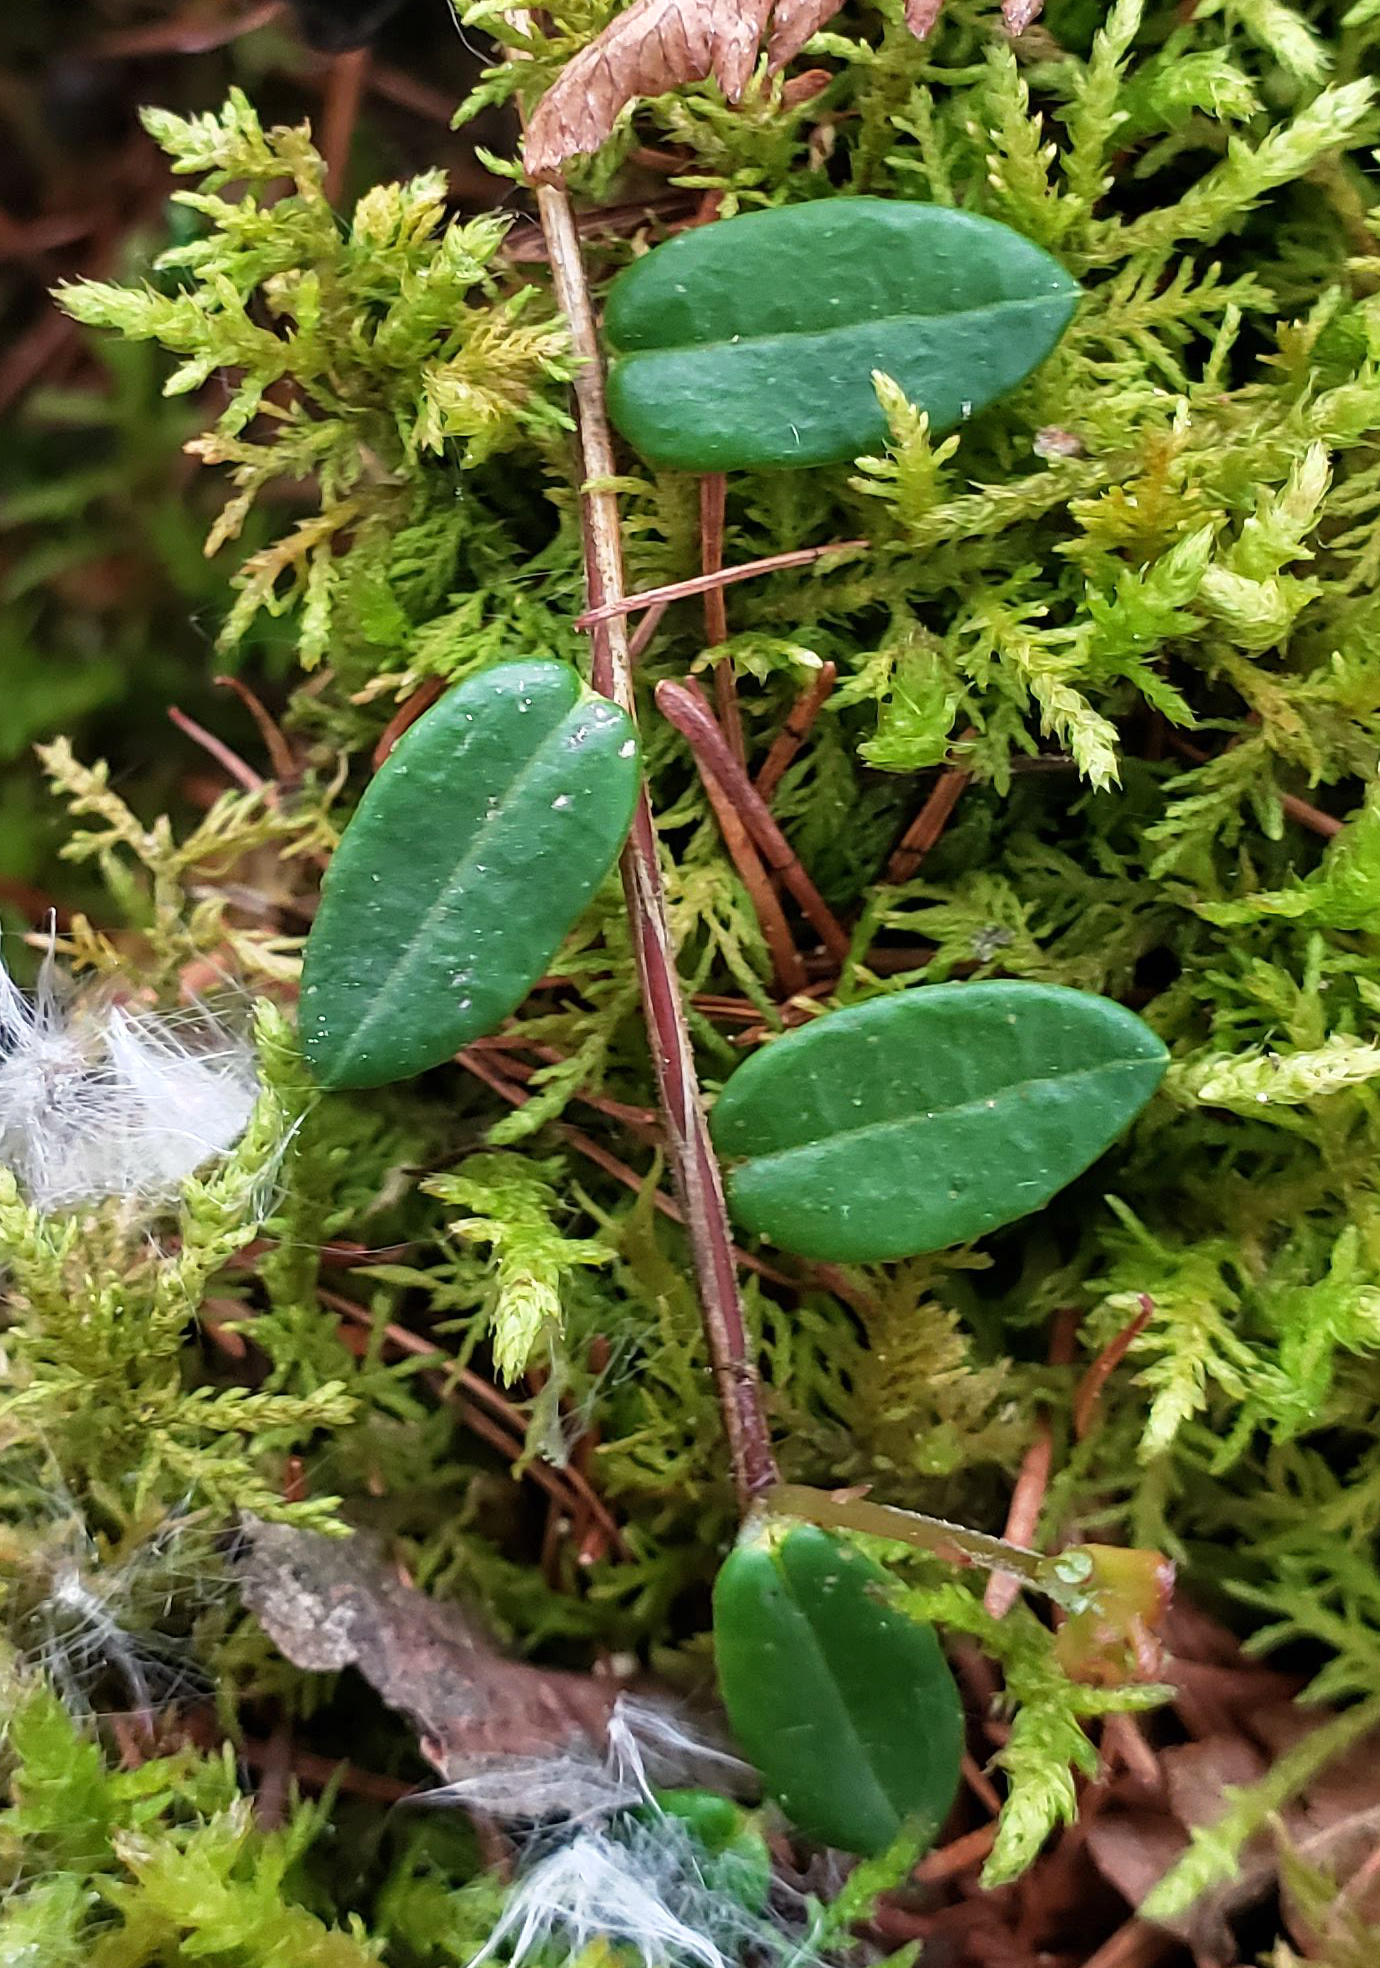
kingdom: Plantae
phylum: Tracheophyta
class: Magnoliopsida
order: Ericales
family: Ericaceae
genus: Vaccinium
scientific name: Vaccinium macrocarpon
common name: American cranberry
